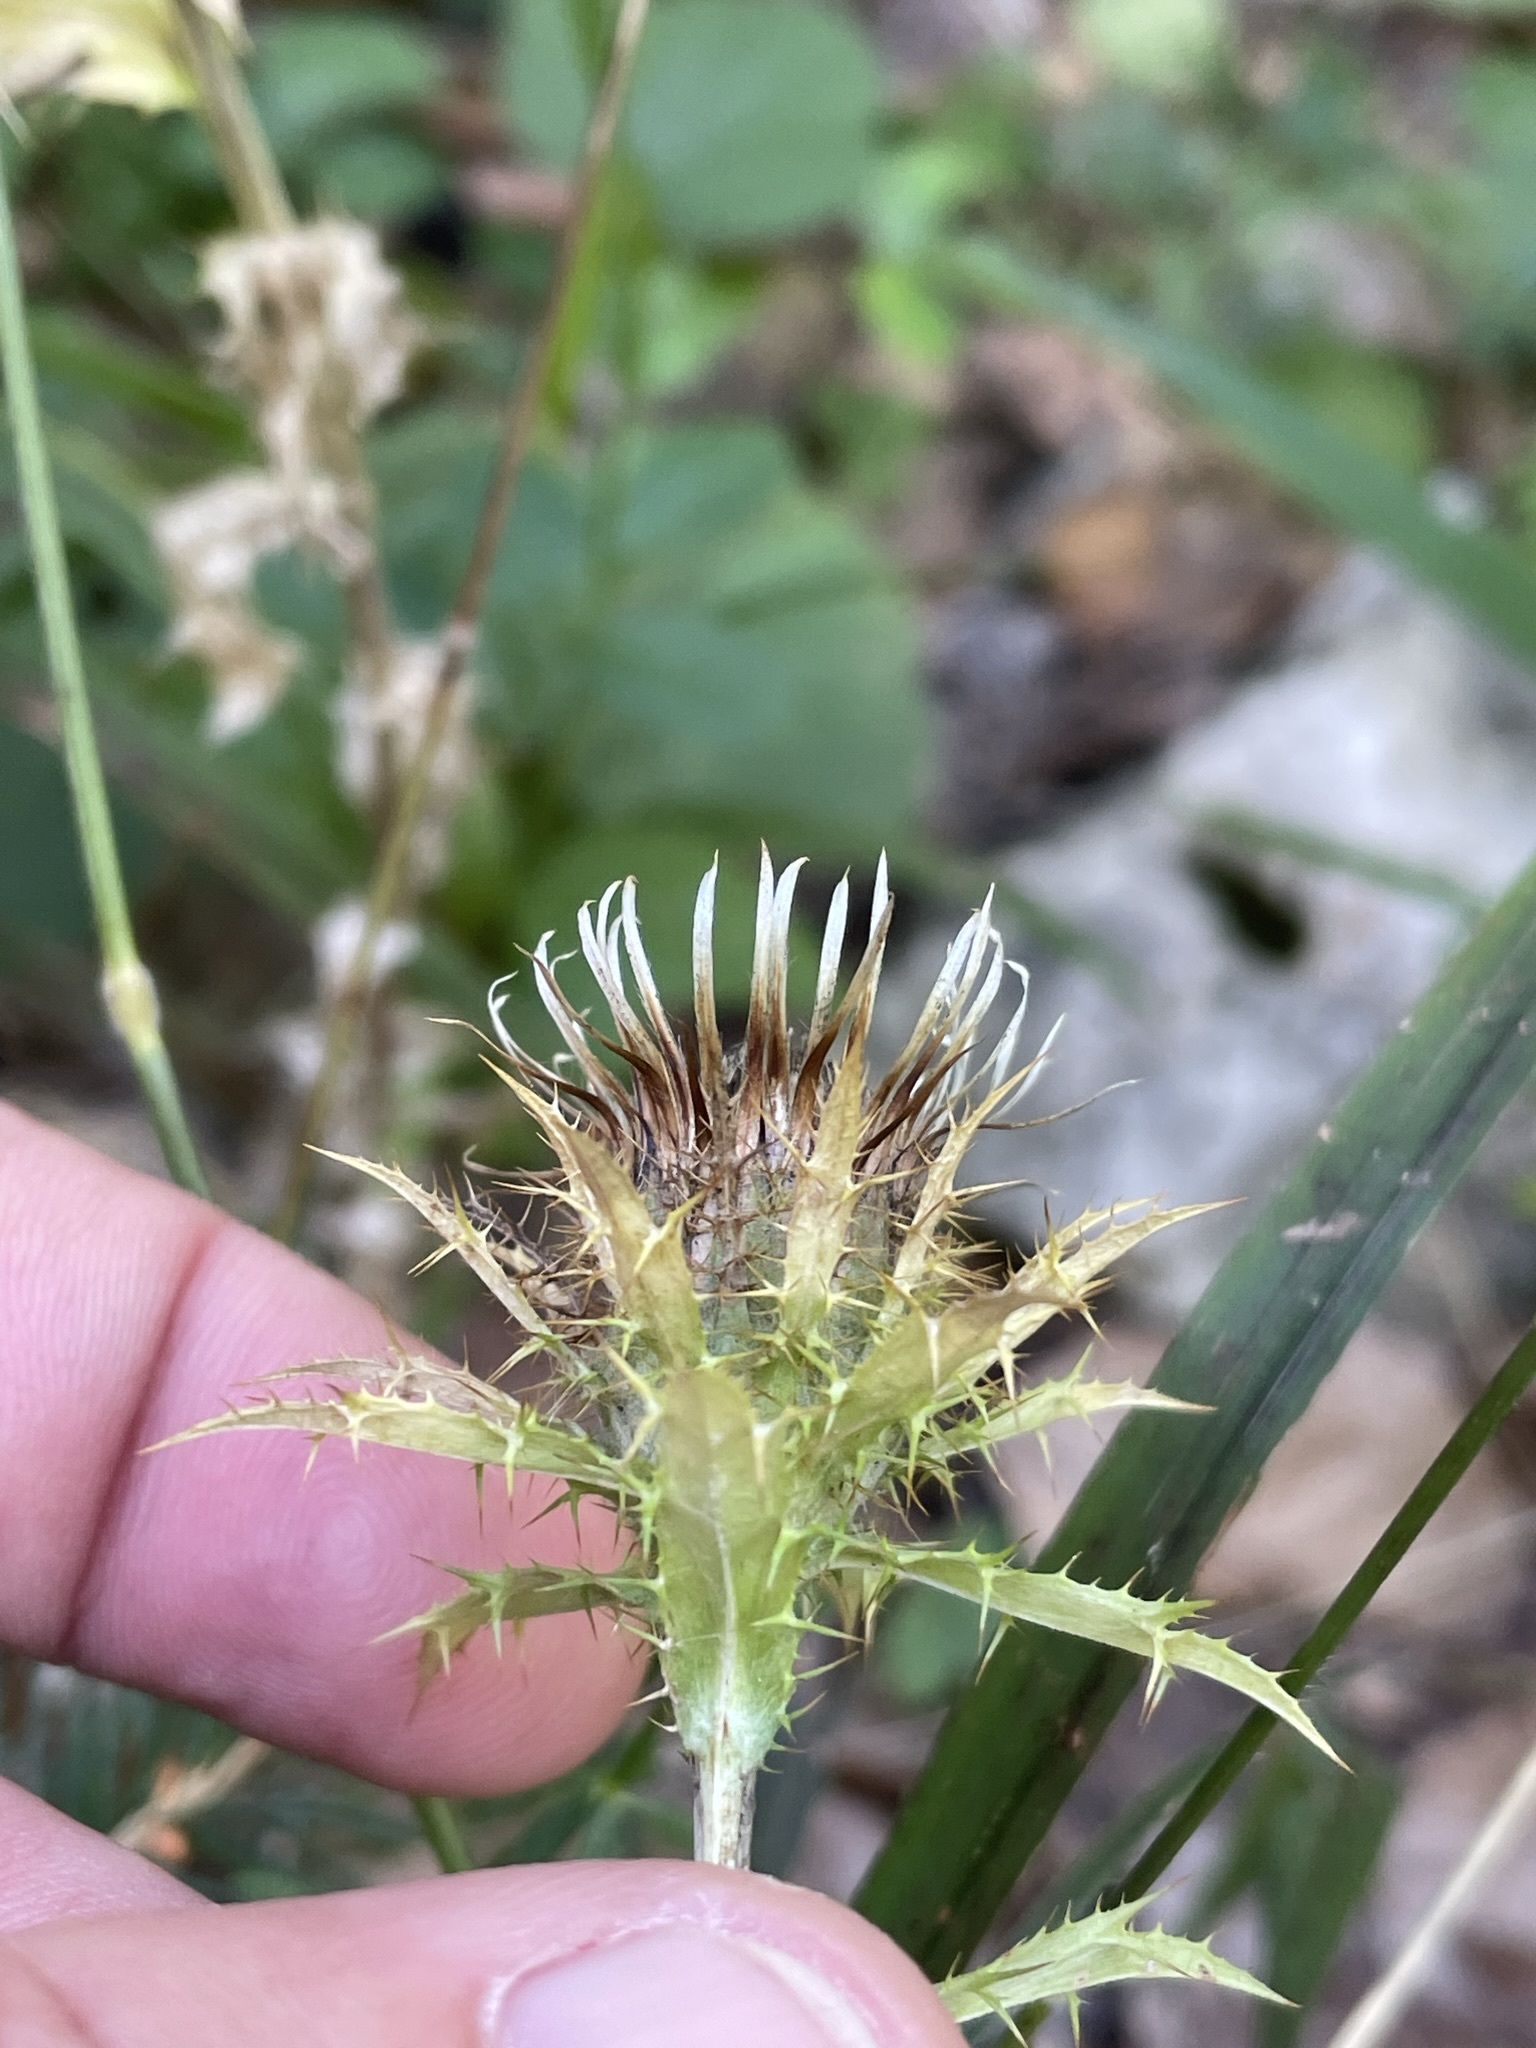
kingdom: Plantae
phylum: Tracheophyta
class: Magnoliopsida
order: Asterales
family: Asteraceae
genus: Carlina
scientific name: Carlina vulgaris
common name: Carline thistle
